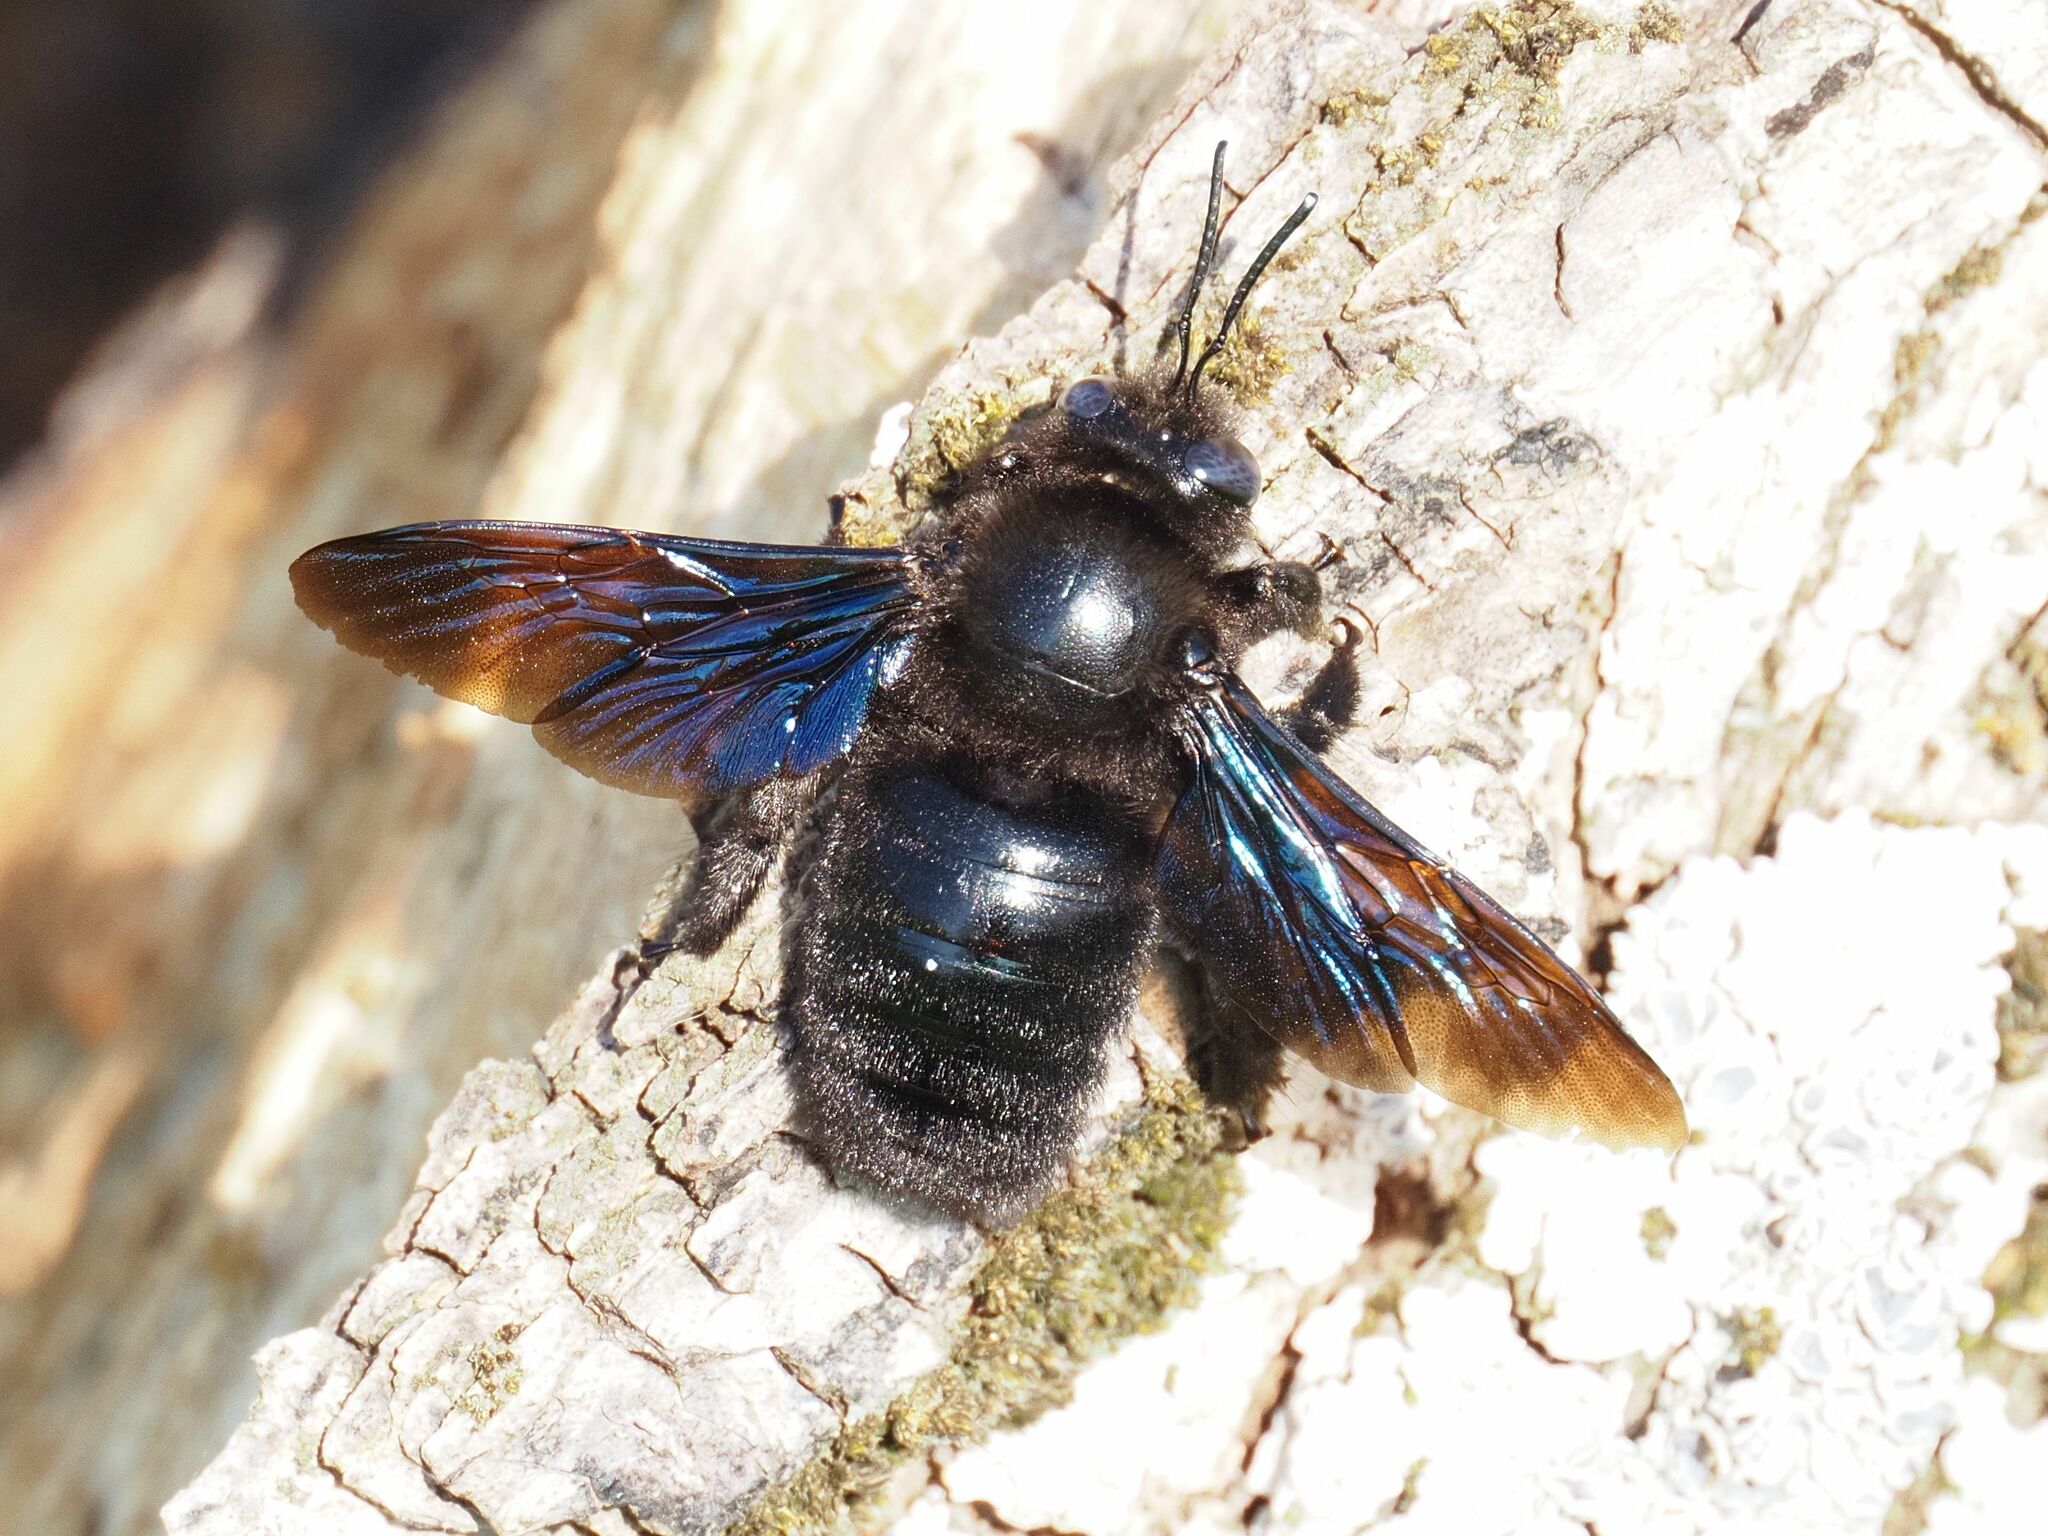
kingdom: Animalia
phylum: Arthropoda
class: Insecta
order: Hymenoptera
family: Apidae
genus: Xylocopa
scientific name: Xylocopa valga
